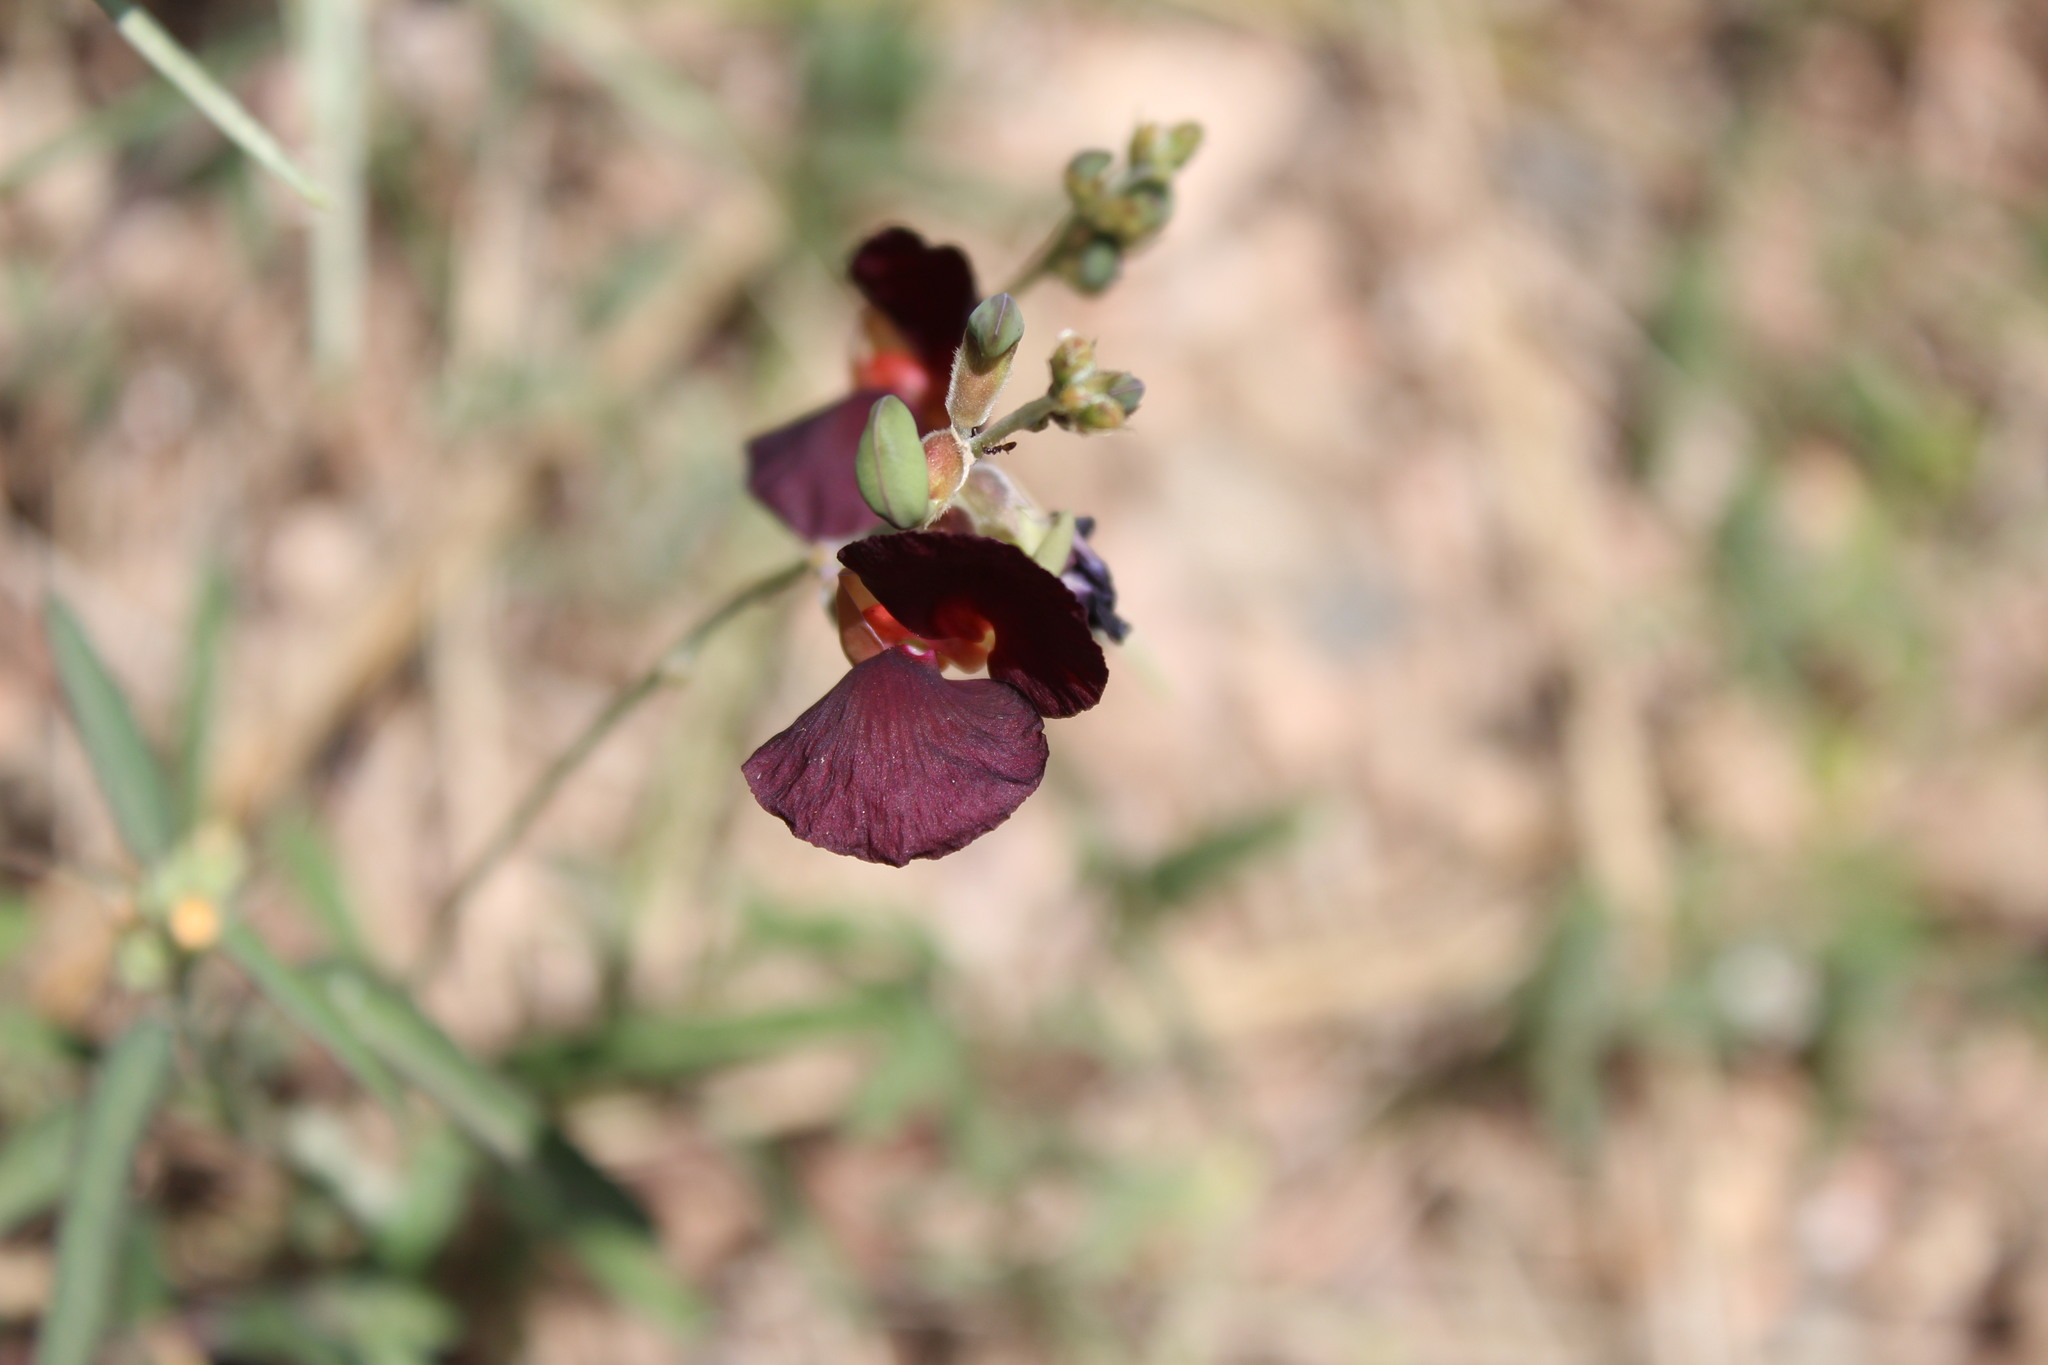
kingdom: Plantae
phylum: Tracheophyta
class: Magnoliopsida
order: Fabales
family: Fabaceae
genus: Macroptilium
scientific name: Macroptilium atropurpureum
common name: Purple bushbean
